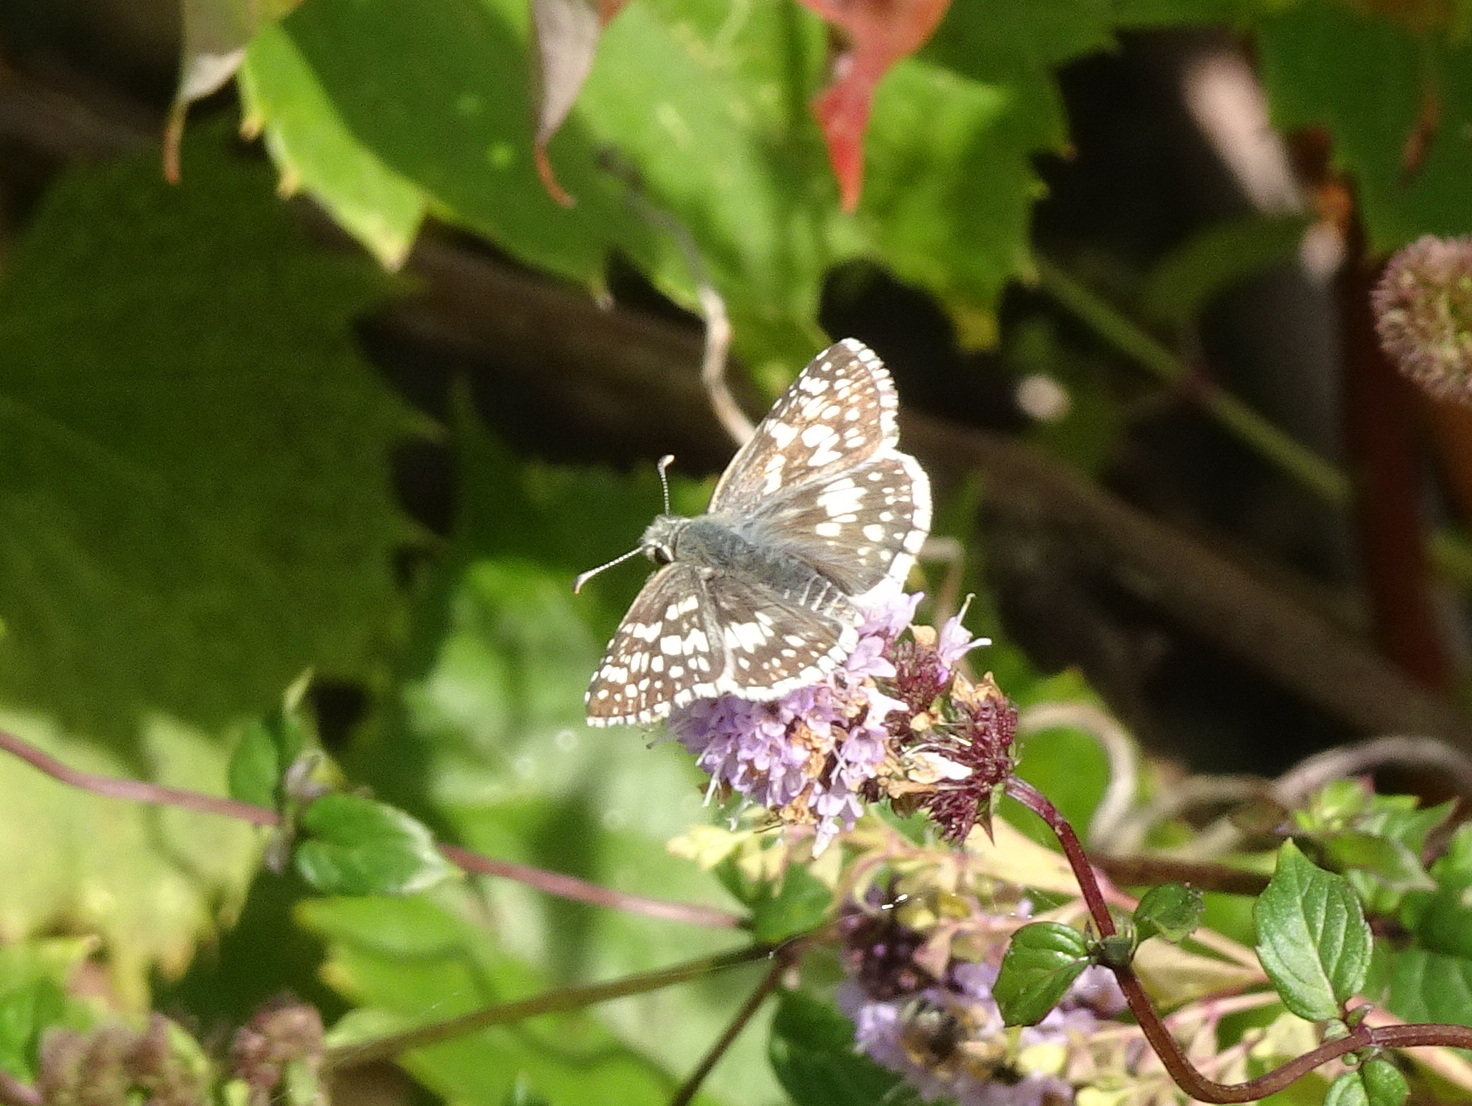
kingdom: Animalia
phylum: Arthropoda
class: Insecta
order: Lepidoptera
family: Hesperiidae
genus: Burnsius
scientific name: Burnsius communis
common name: Common checkered-skipper
